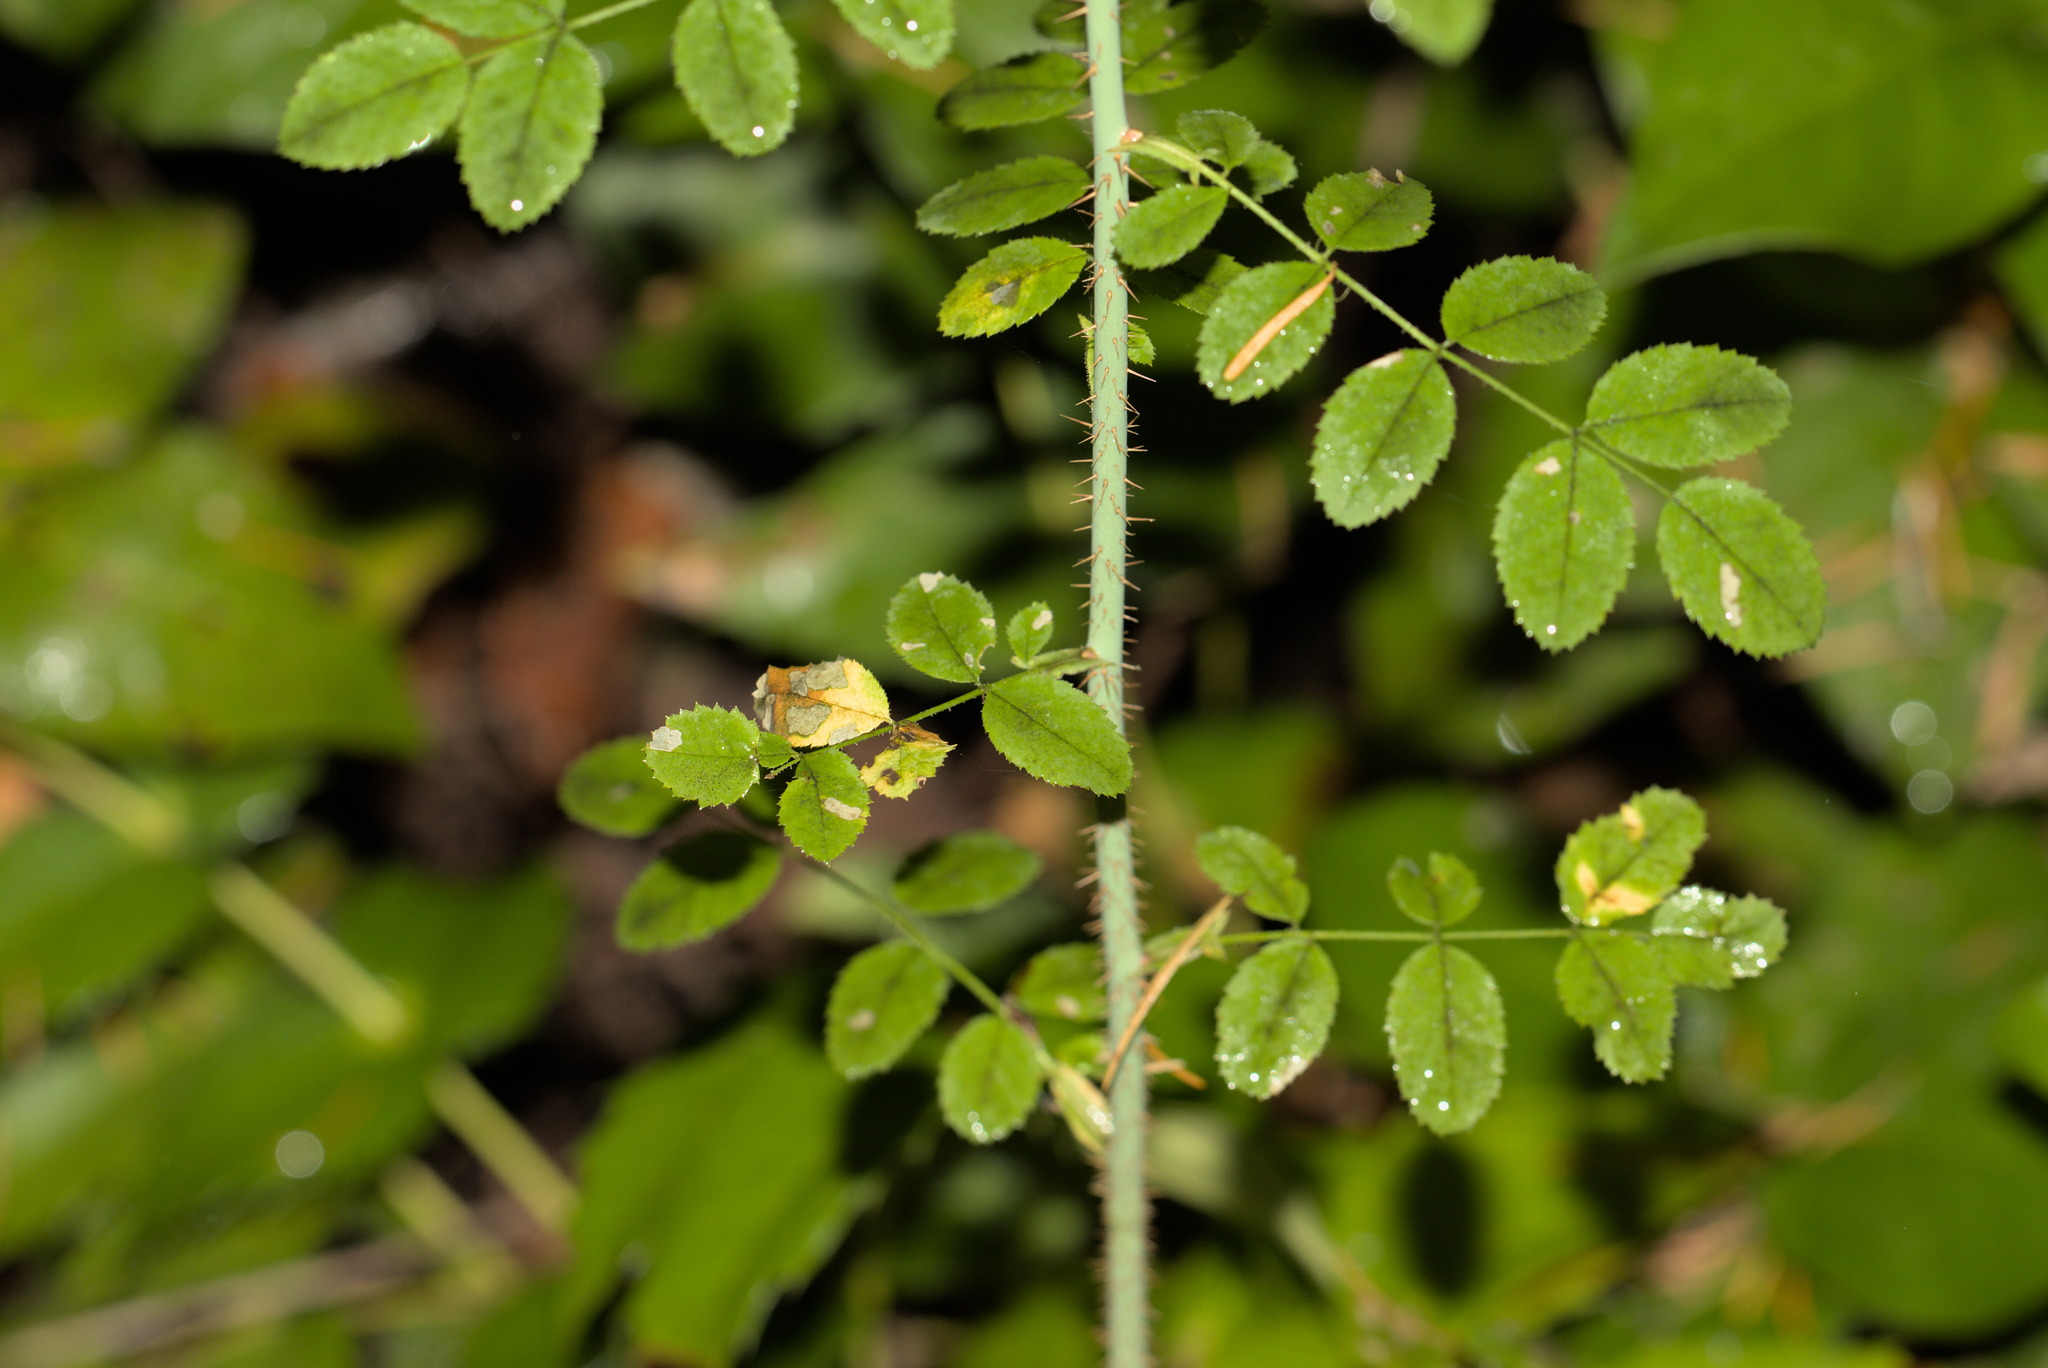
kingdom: Plantae
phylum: Tracheophyta
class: Magnoliopsida
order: Rosales
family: Rosaceae
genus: Rosa
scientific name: Rosa gymnocarpa
